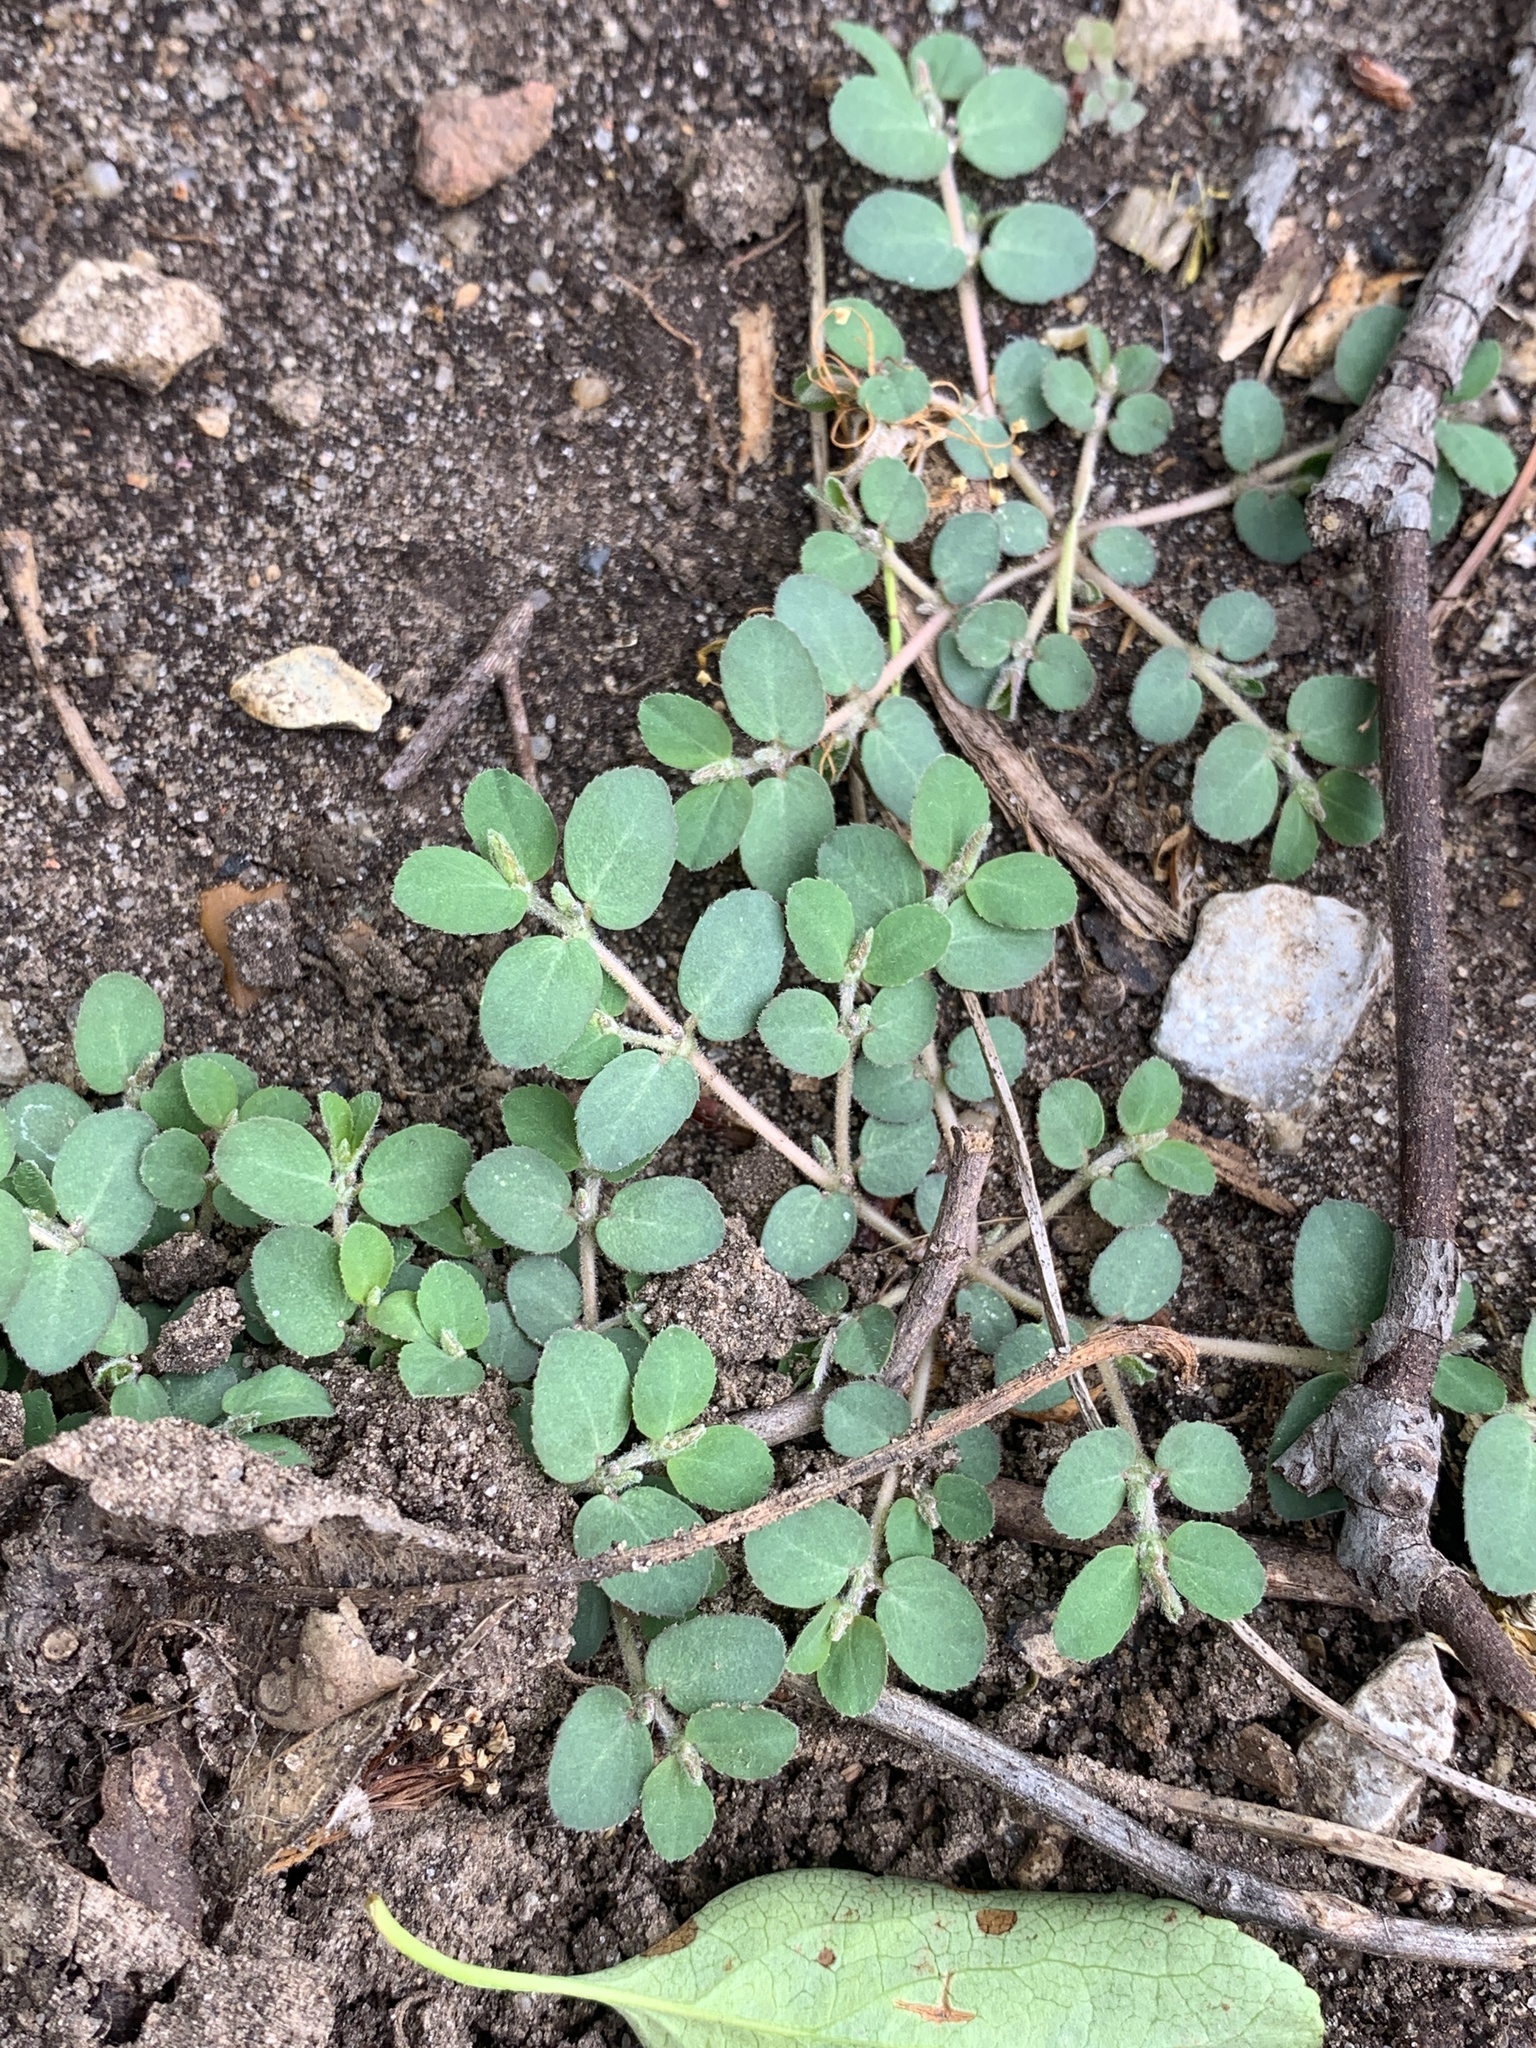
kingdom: Plantae
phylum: Tracheophyta
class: Magnoliopsida
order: Malpighiales
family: Euphorbiaceae
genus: Euphorbia
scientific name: Euphorbia prostrata
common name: Prostrate sandmat
